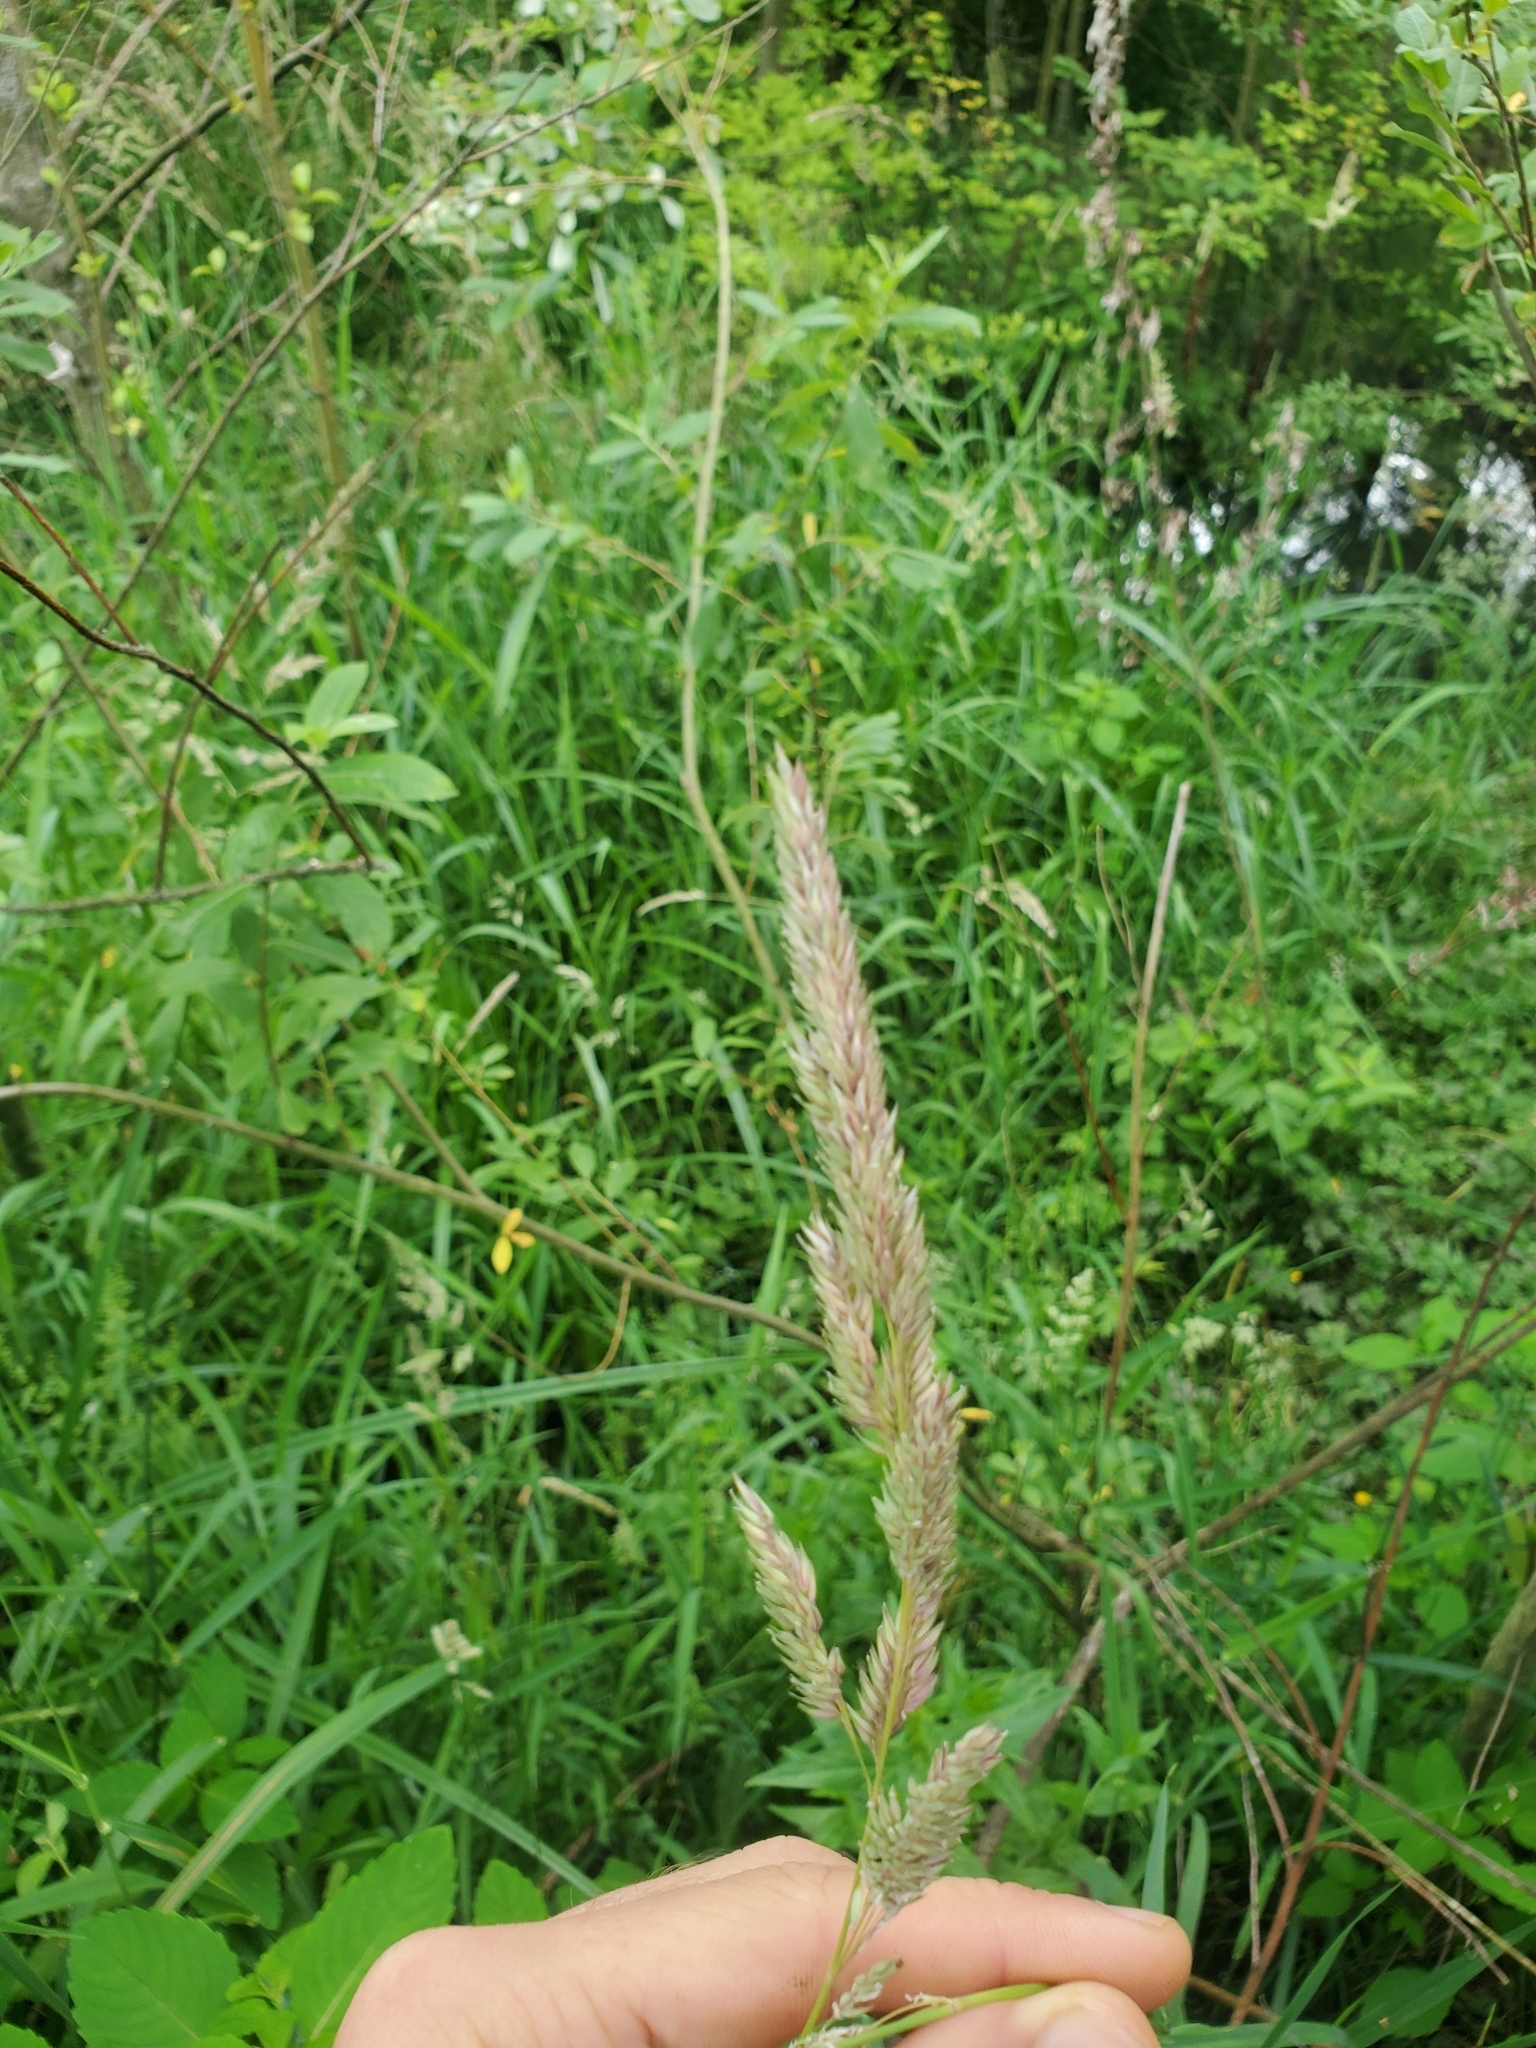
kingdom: Plantae
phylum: Tracheophyta
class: Liliopsida
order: Poales
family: Poaceae
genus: Phalaris
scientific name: Phalaris arundinacea
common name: Reed canary-grass
